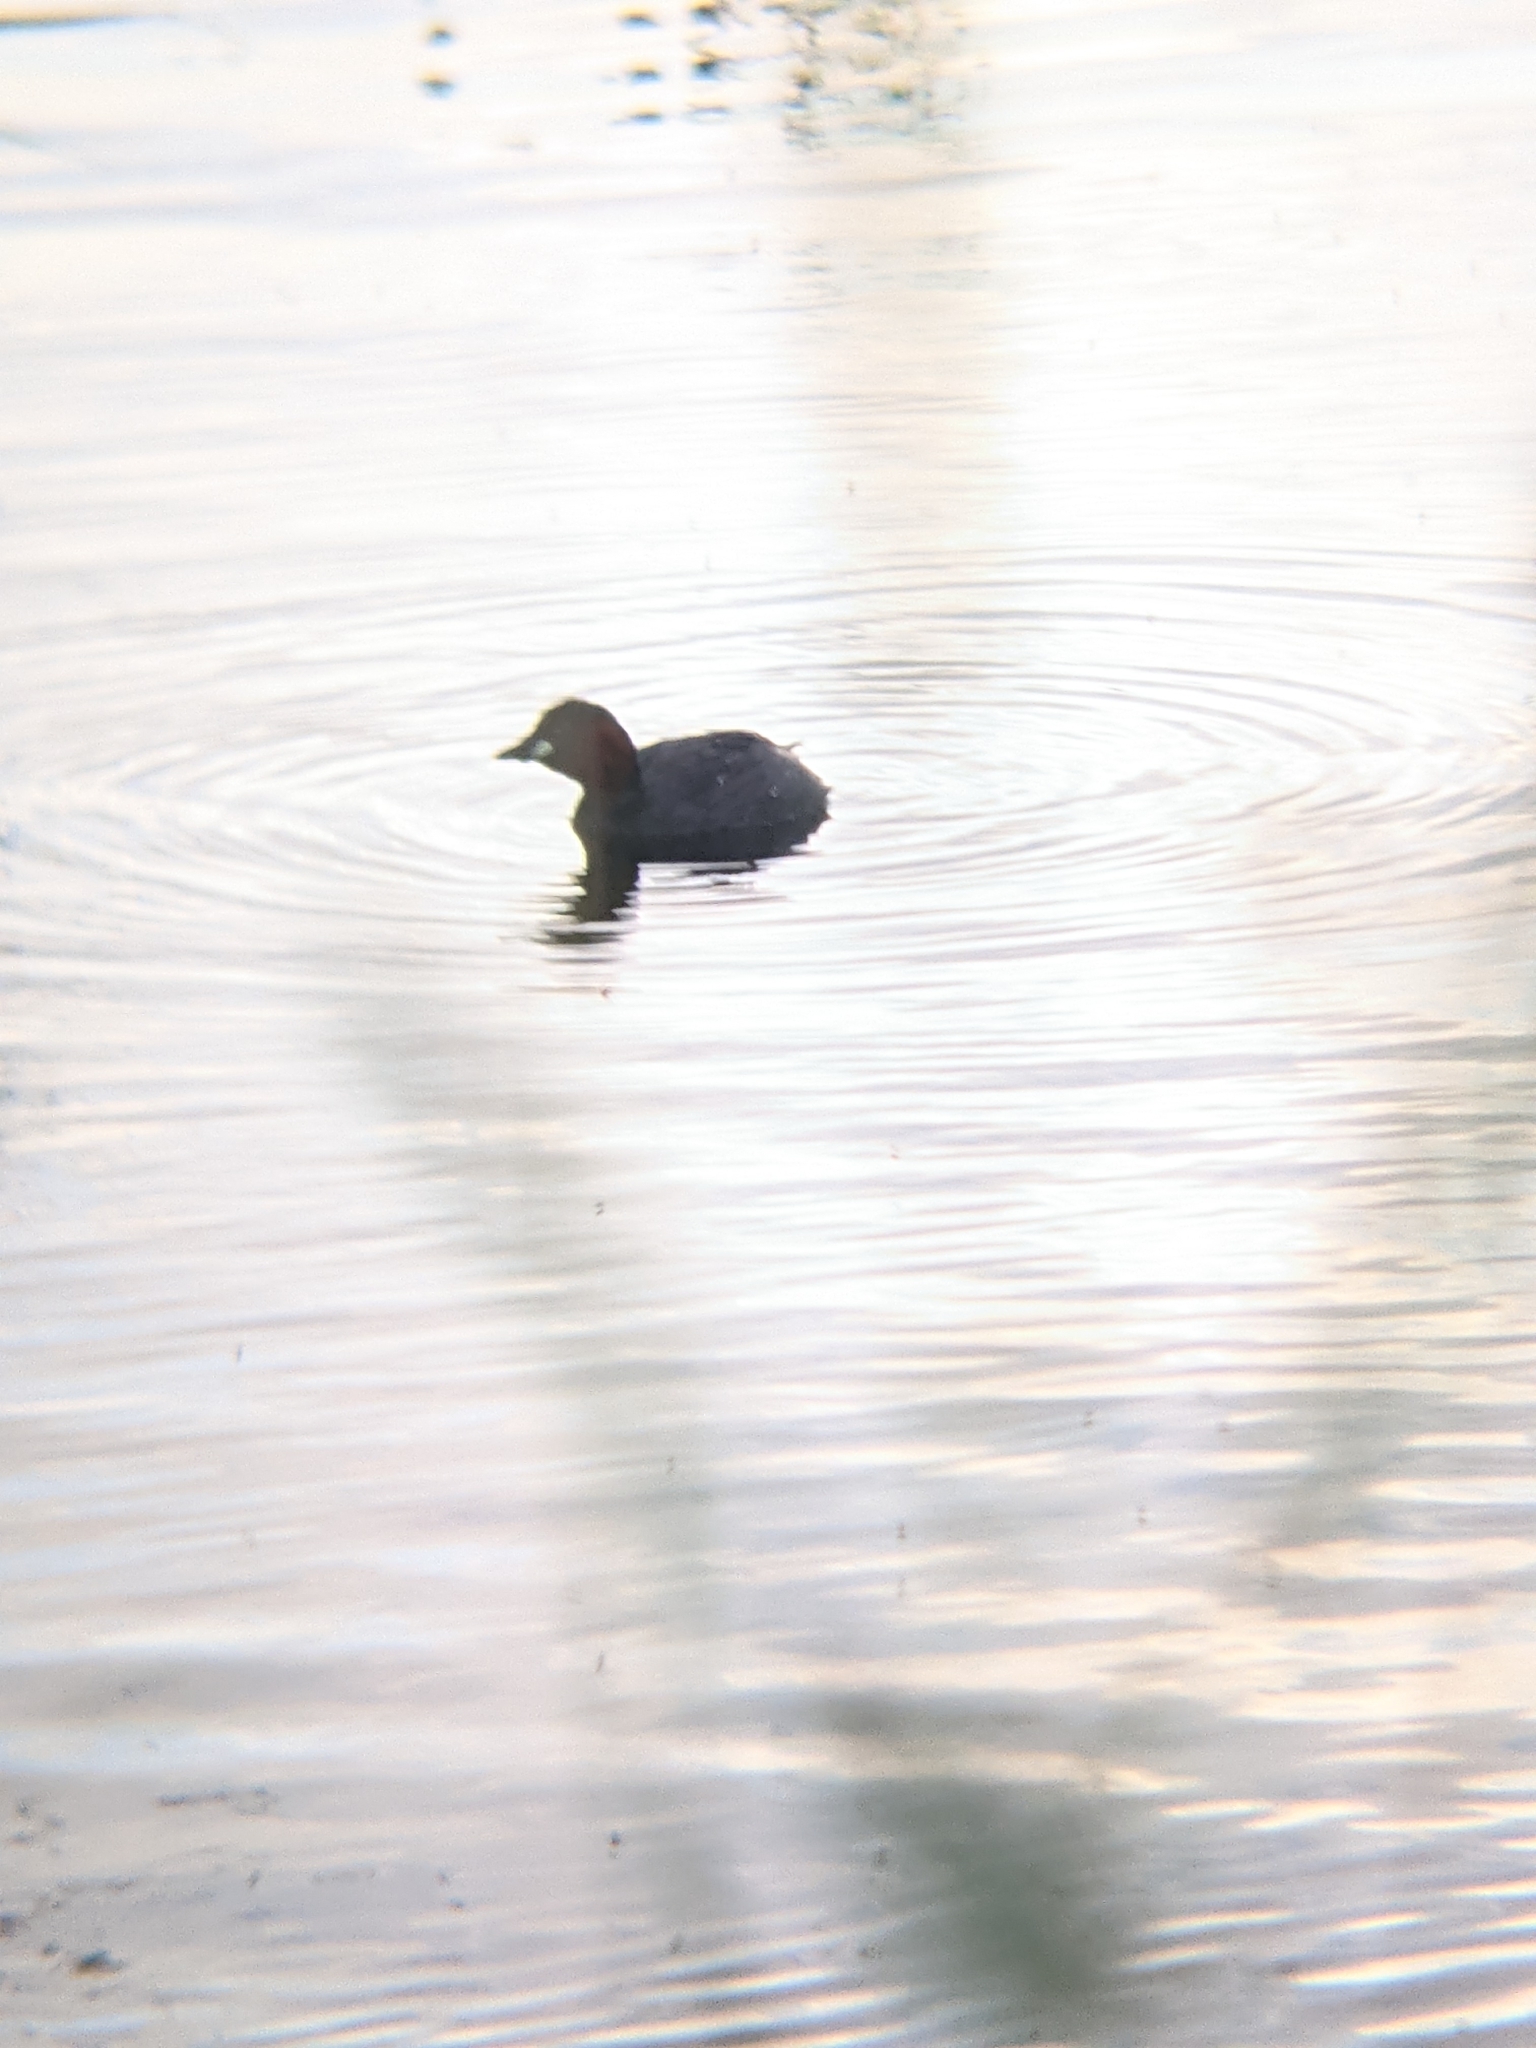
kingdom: Animalia
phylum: Chordata
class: Aves
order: Podicipediformes
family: Podicipedidae
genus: Tachybaptus
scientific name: Tachybaptus ruficollis
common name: Little grebe
